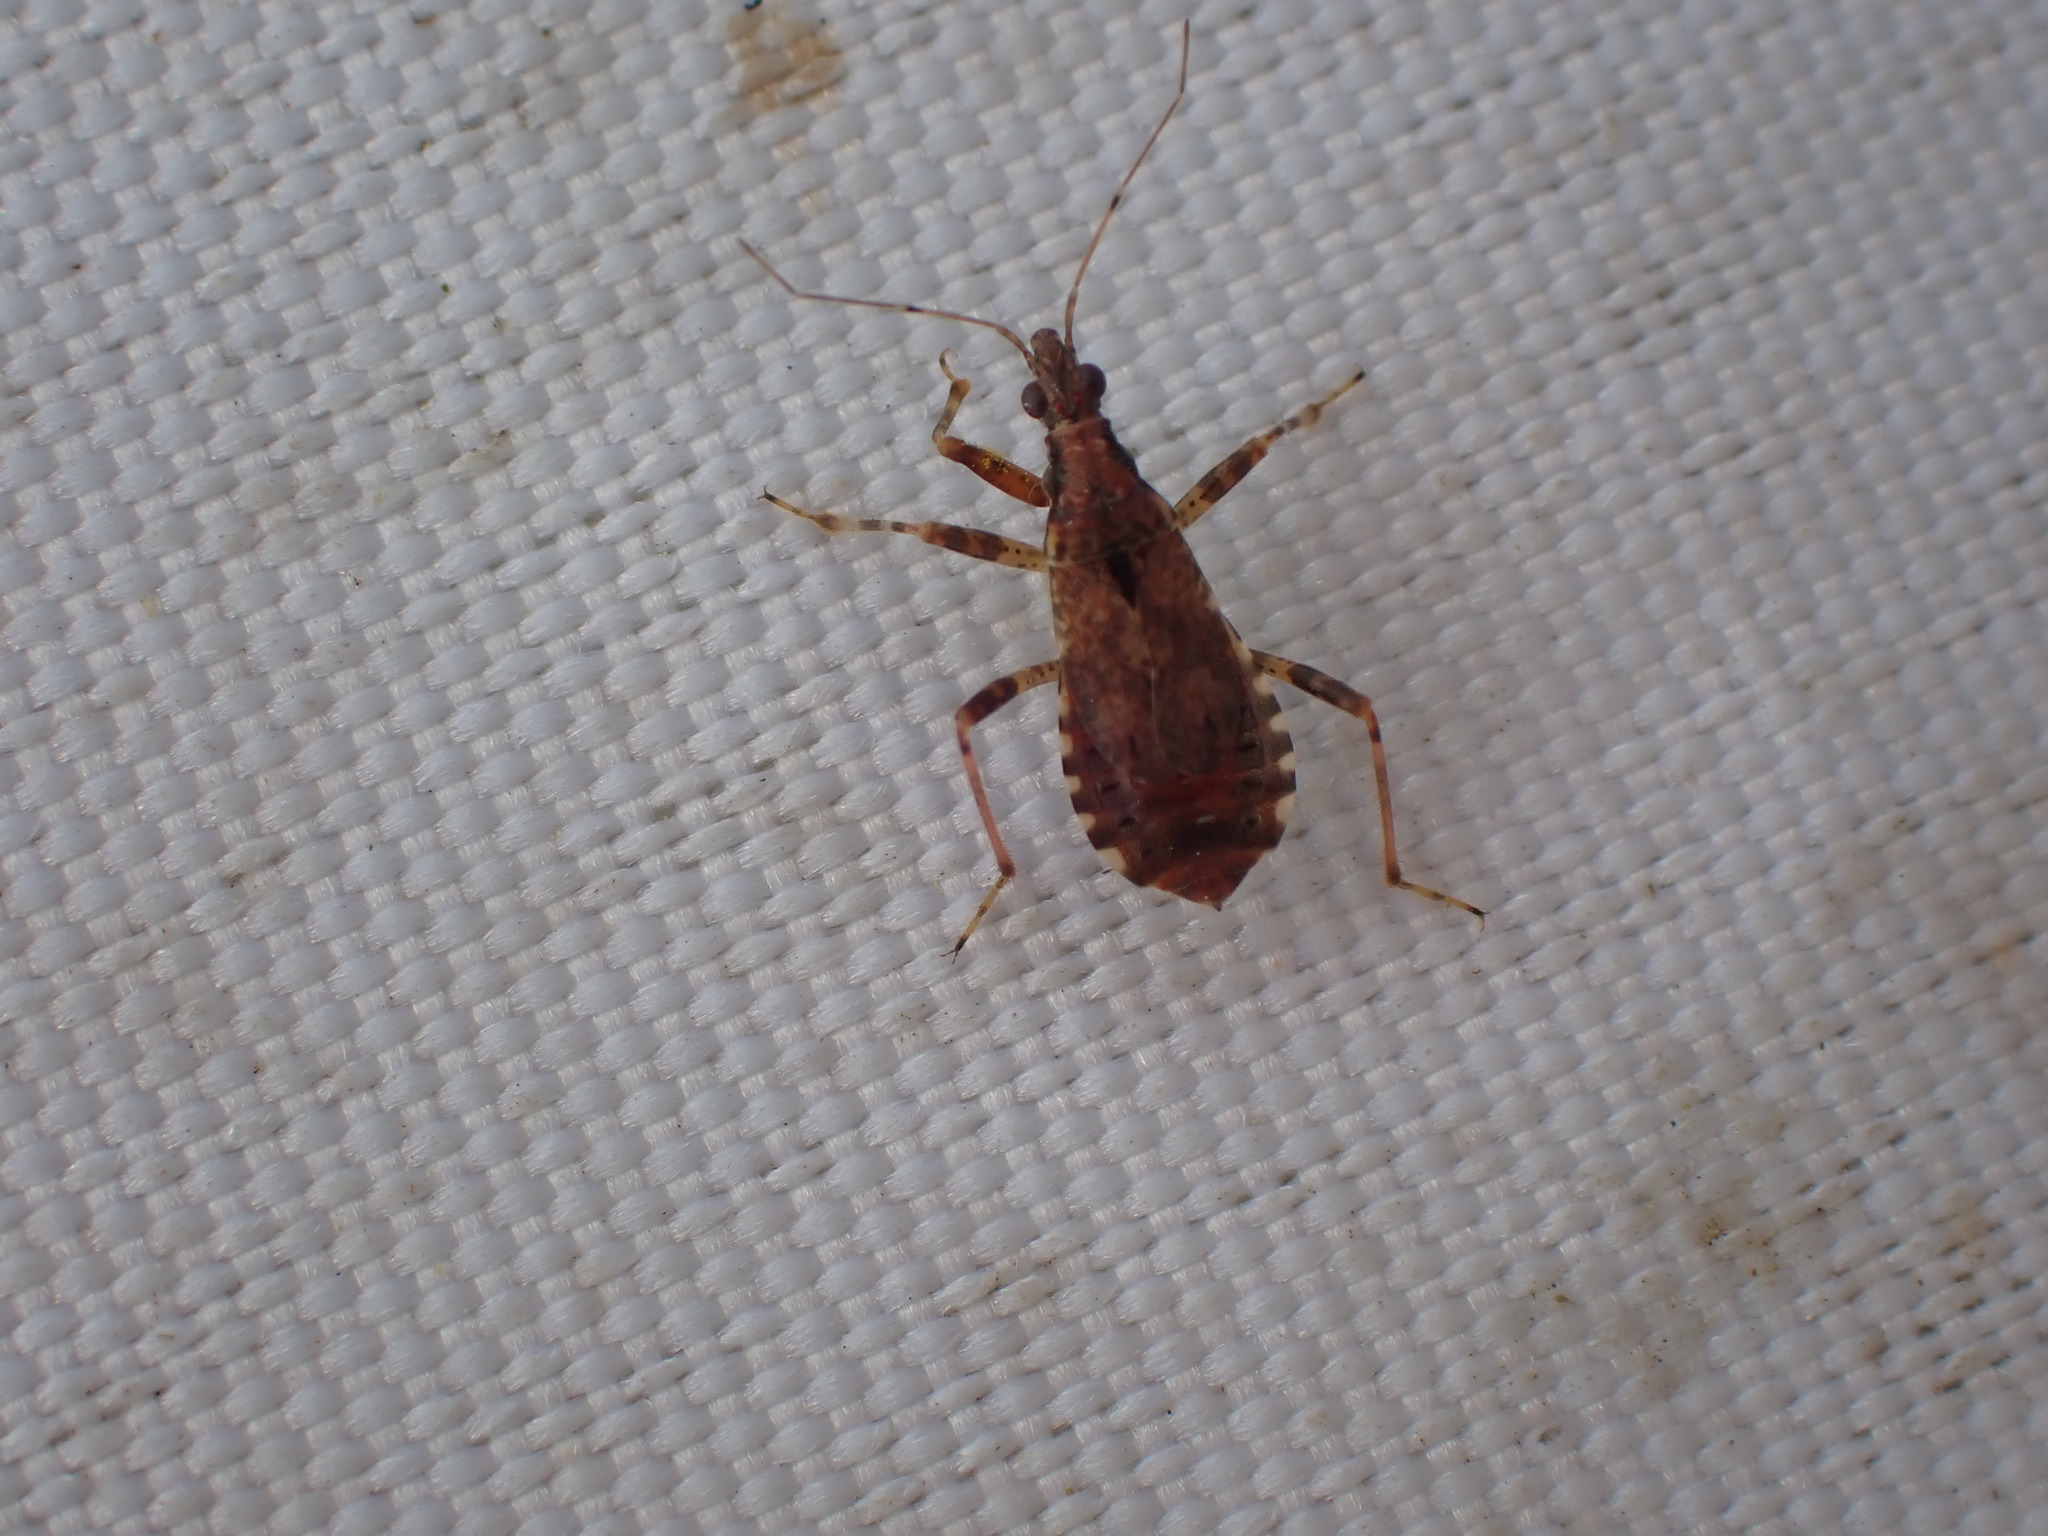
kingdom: Animalia
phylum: Arthropoda
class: Insecta
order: Hemiptera
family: Nabidae
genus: Himacerus
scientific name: Himacerus mirmicoides
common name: Ant damsel bug
